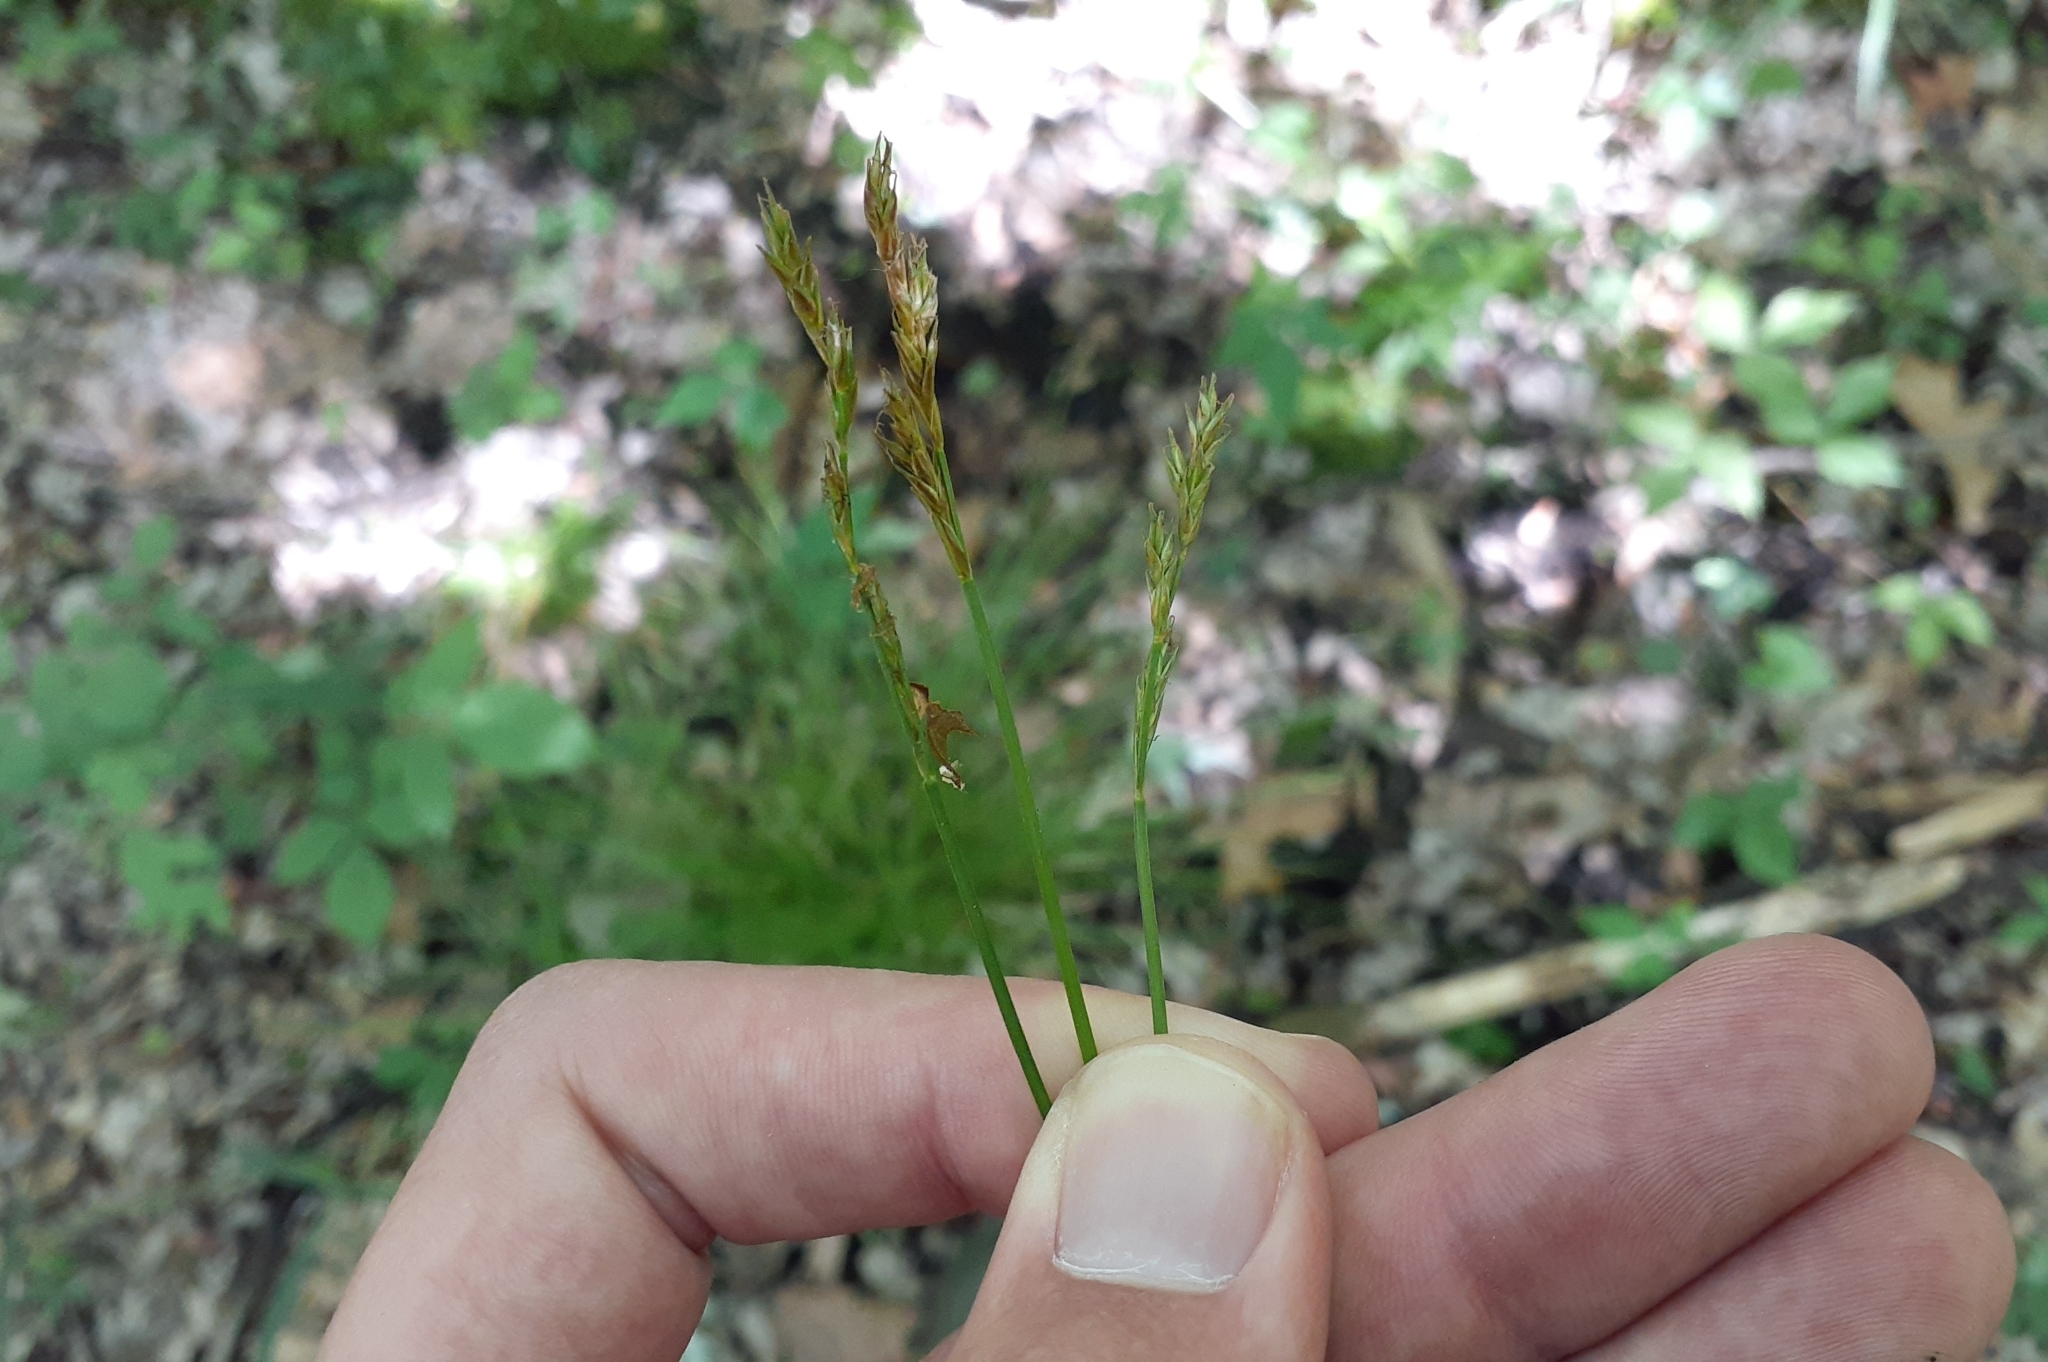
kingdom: Plantae
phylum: Tracheophyta
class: Liliopsida
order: Poales
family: Cyperaceae
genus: Carex
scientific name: Carex bromoides
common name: Brome hummock sedge
